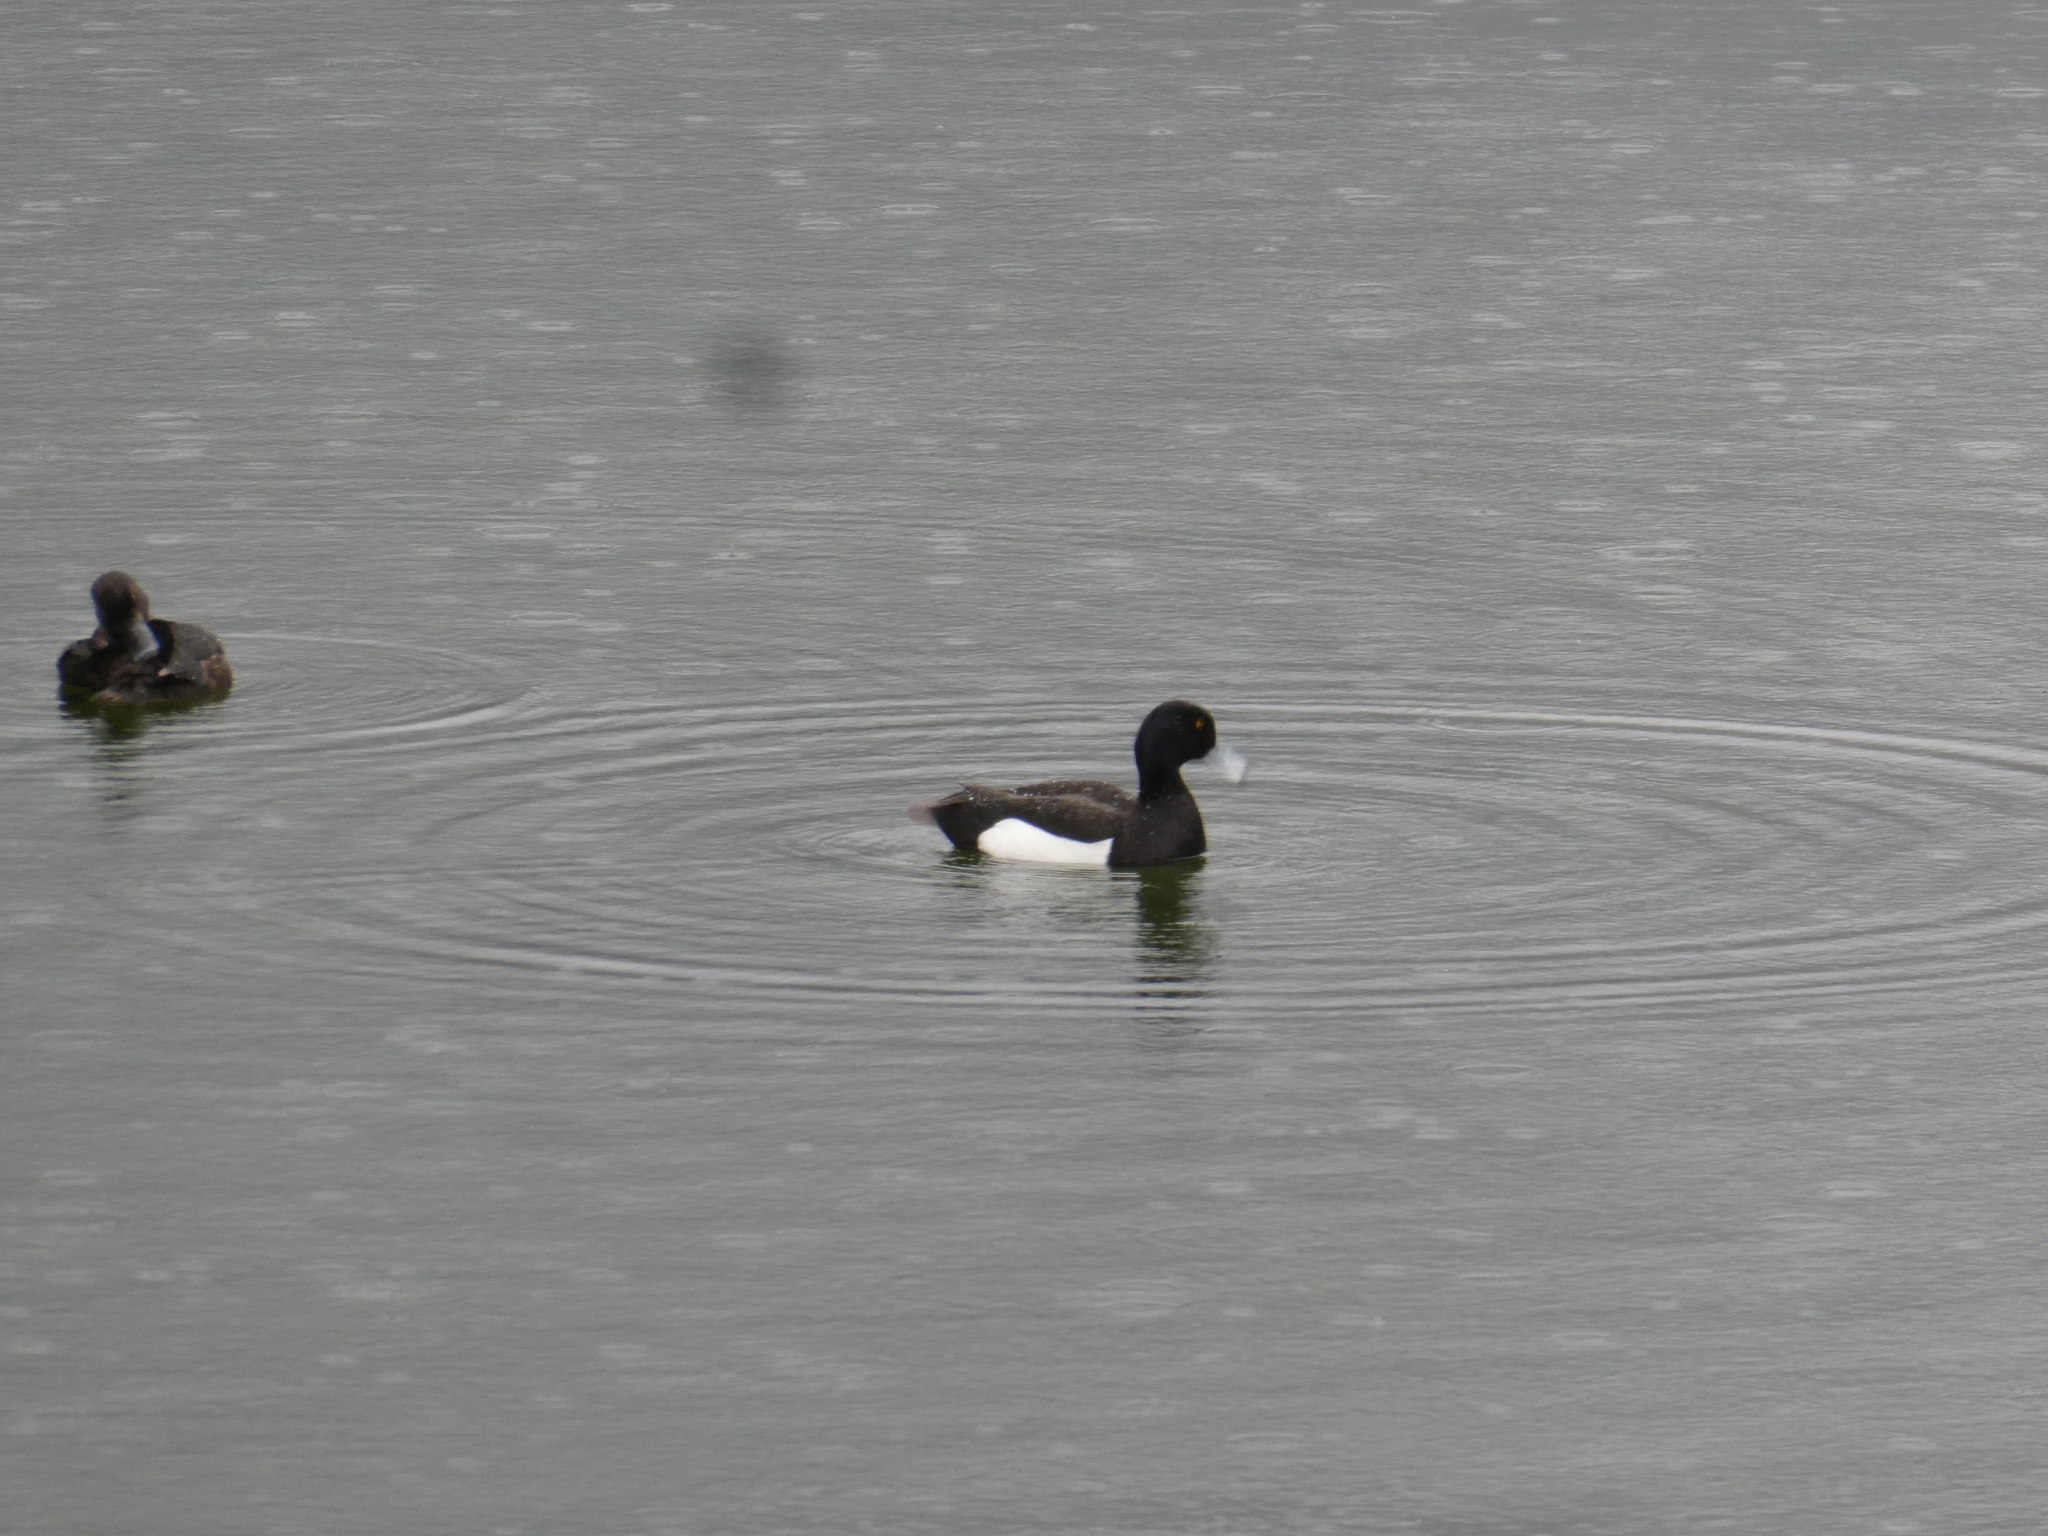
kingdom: Animalia
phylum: Chordata
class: Aves
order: Anseriformes
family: Anatidae
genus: Aythya
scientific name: Aythya fuligula
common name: Tufted duck
